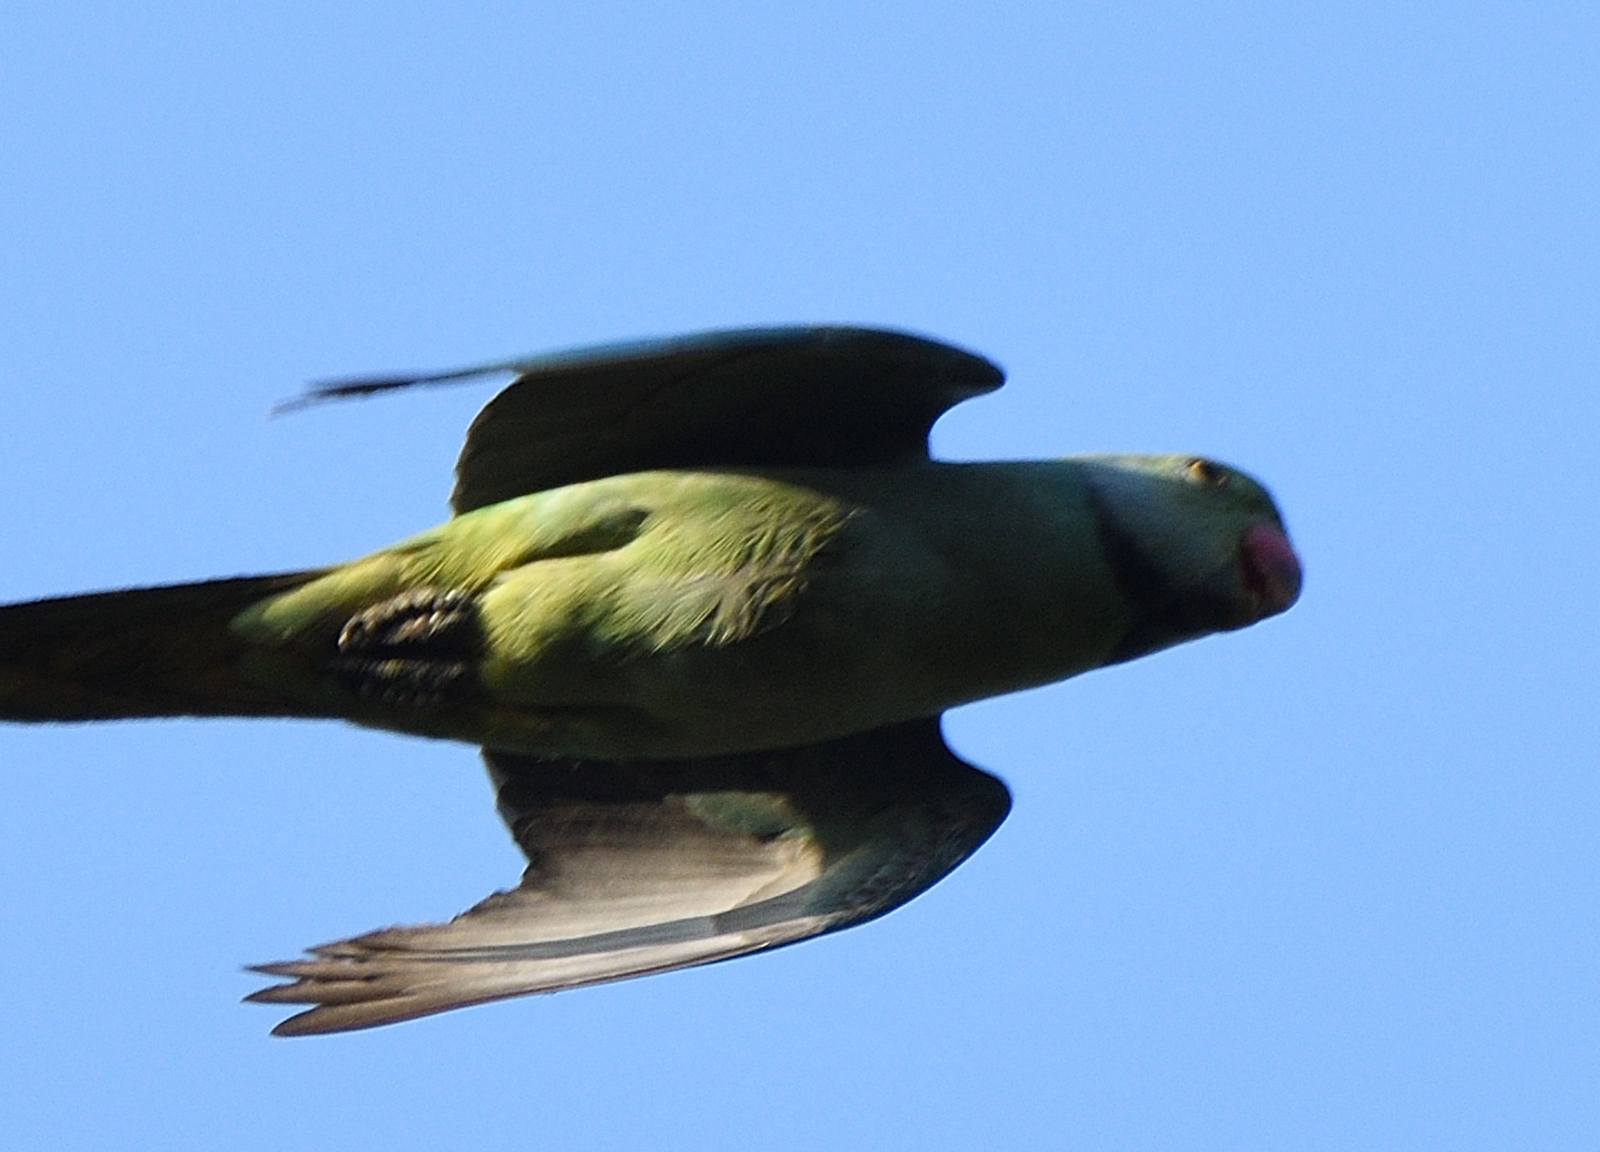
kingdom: Animalia
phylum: Chordata
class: Aves
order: Psittaciformes
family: Psittacidae
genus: Psittacula
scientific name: Psittacula columboides
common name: Blue-winged parakeet
